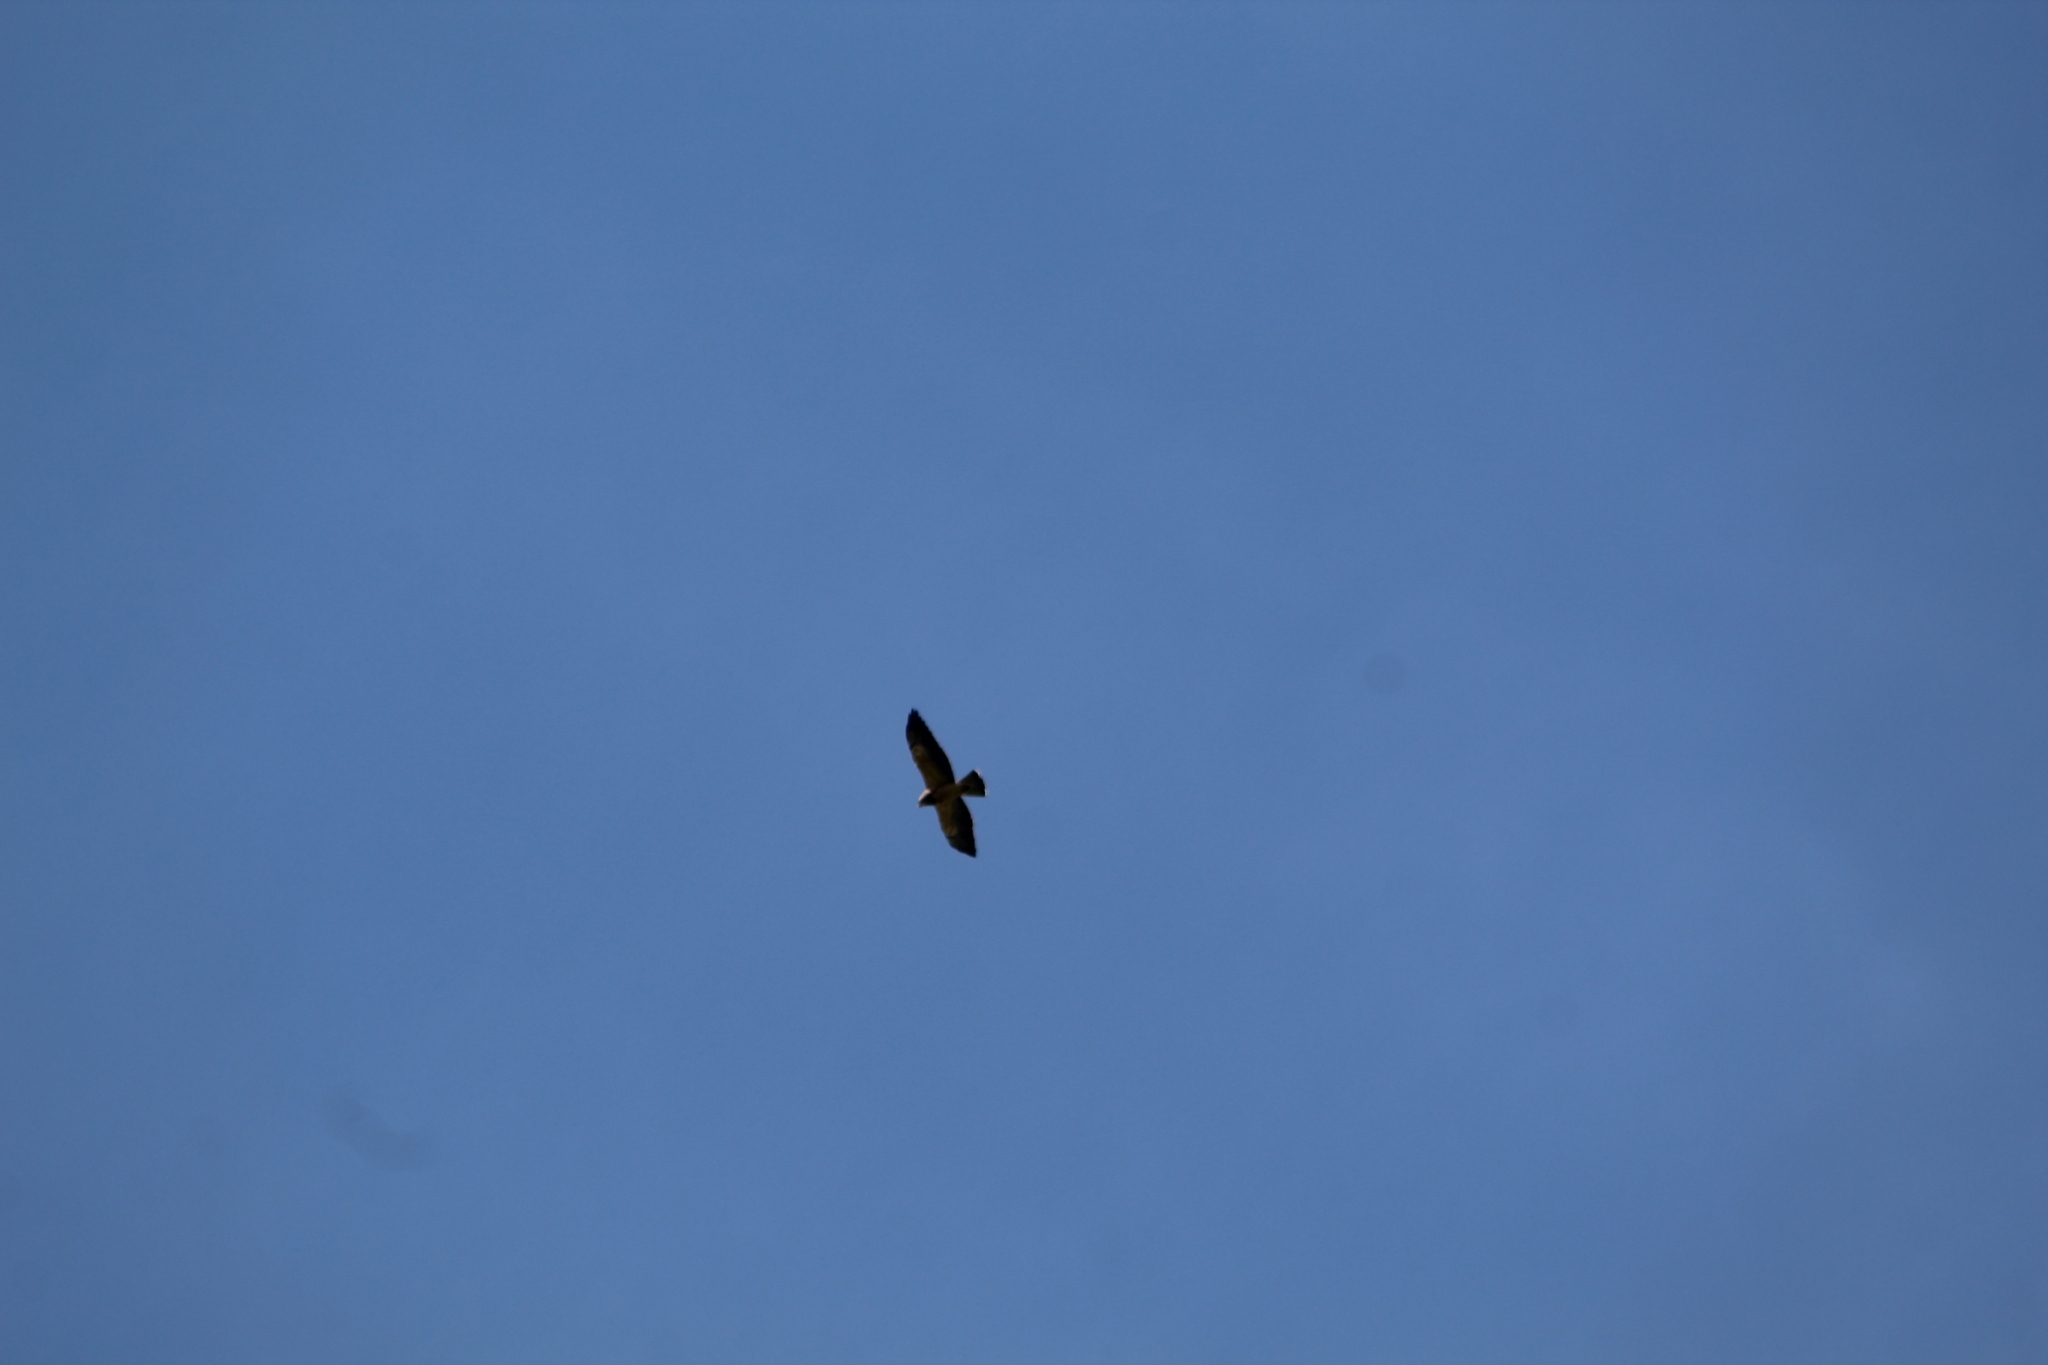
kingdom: Animalia
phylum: Chordata
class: Aves
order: Accipitriformes
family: Accipitridae
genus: Buteo
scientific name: Buteo swainsoni
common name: Swainson's hawk
